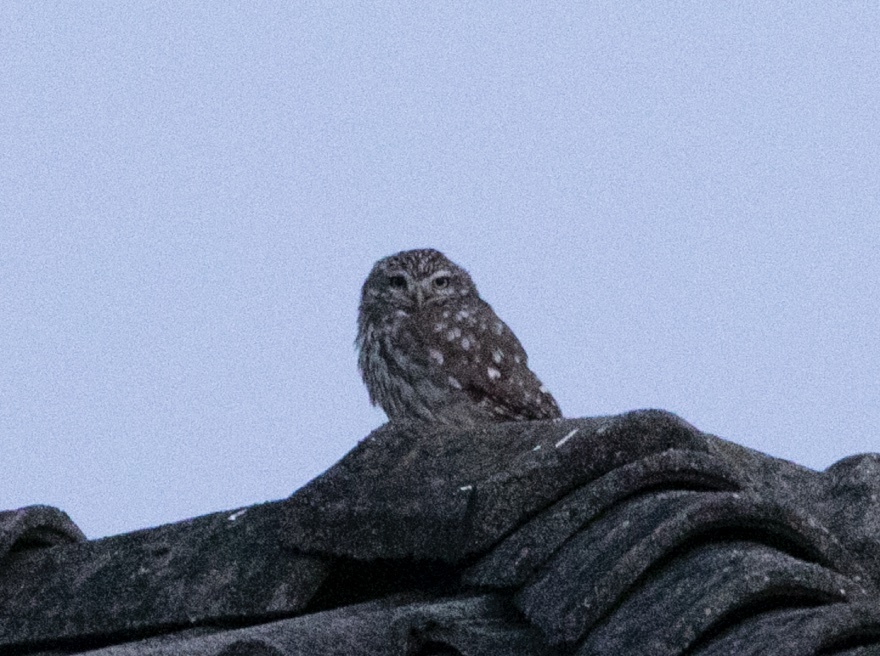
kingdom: Animalia
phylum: Chordata
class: Aves
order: Strigiformes
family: Strigidae
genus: Athene
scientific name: Athene noctua
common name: Little owl
